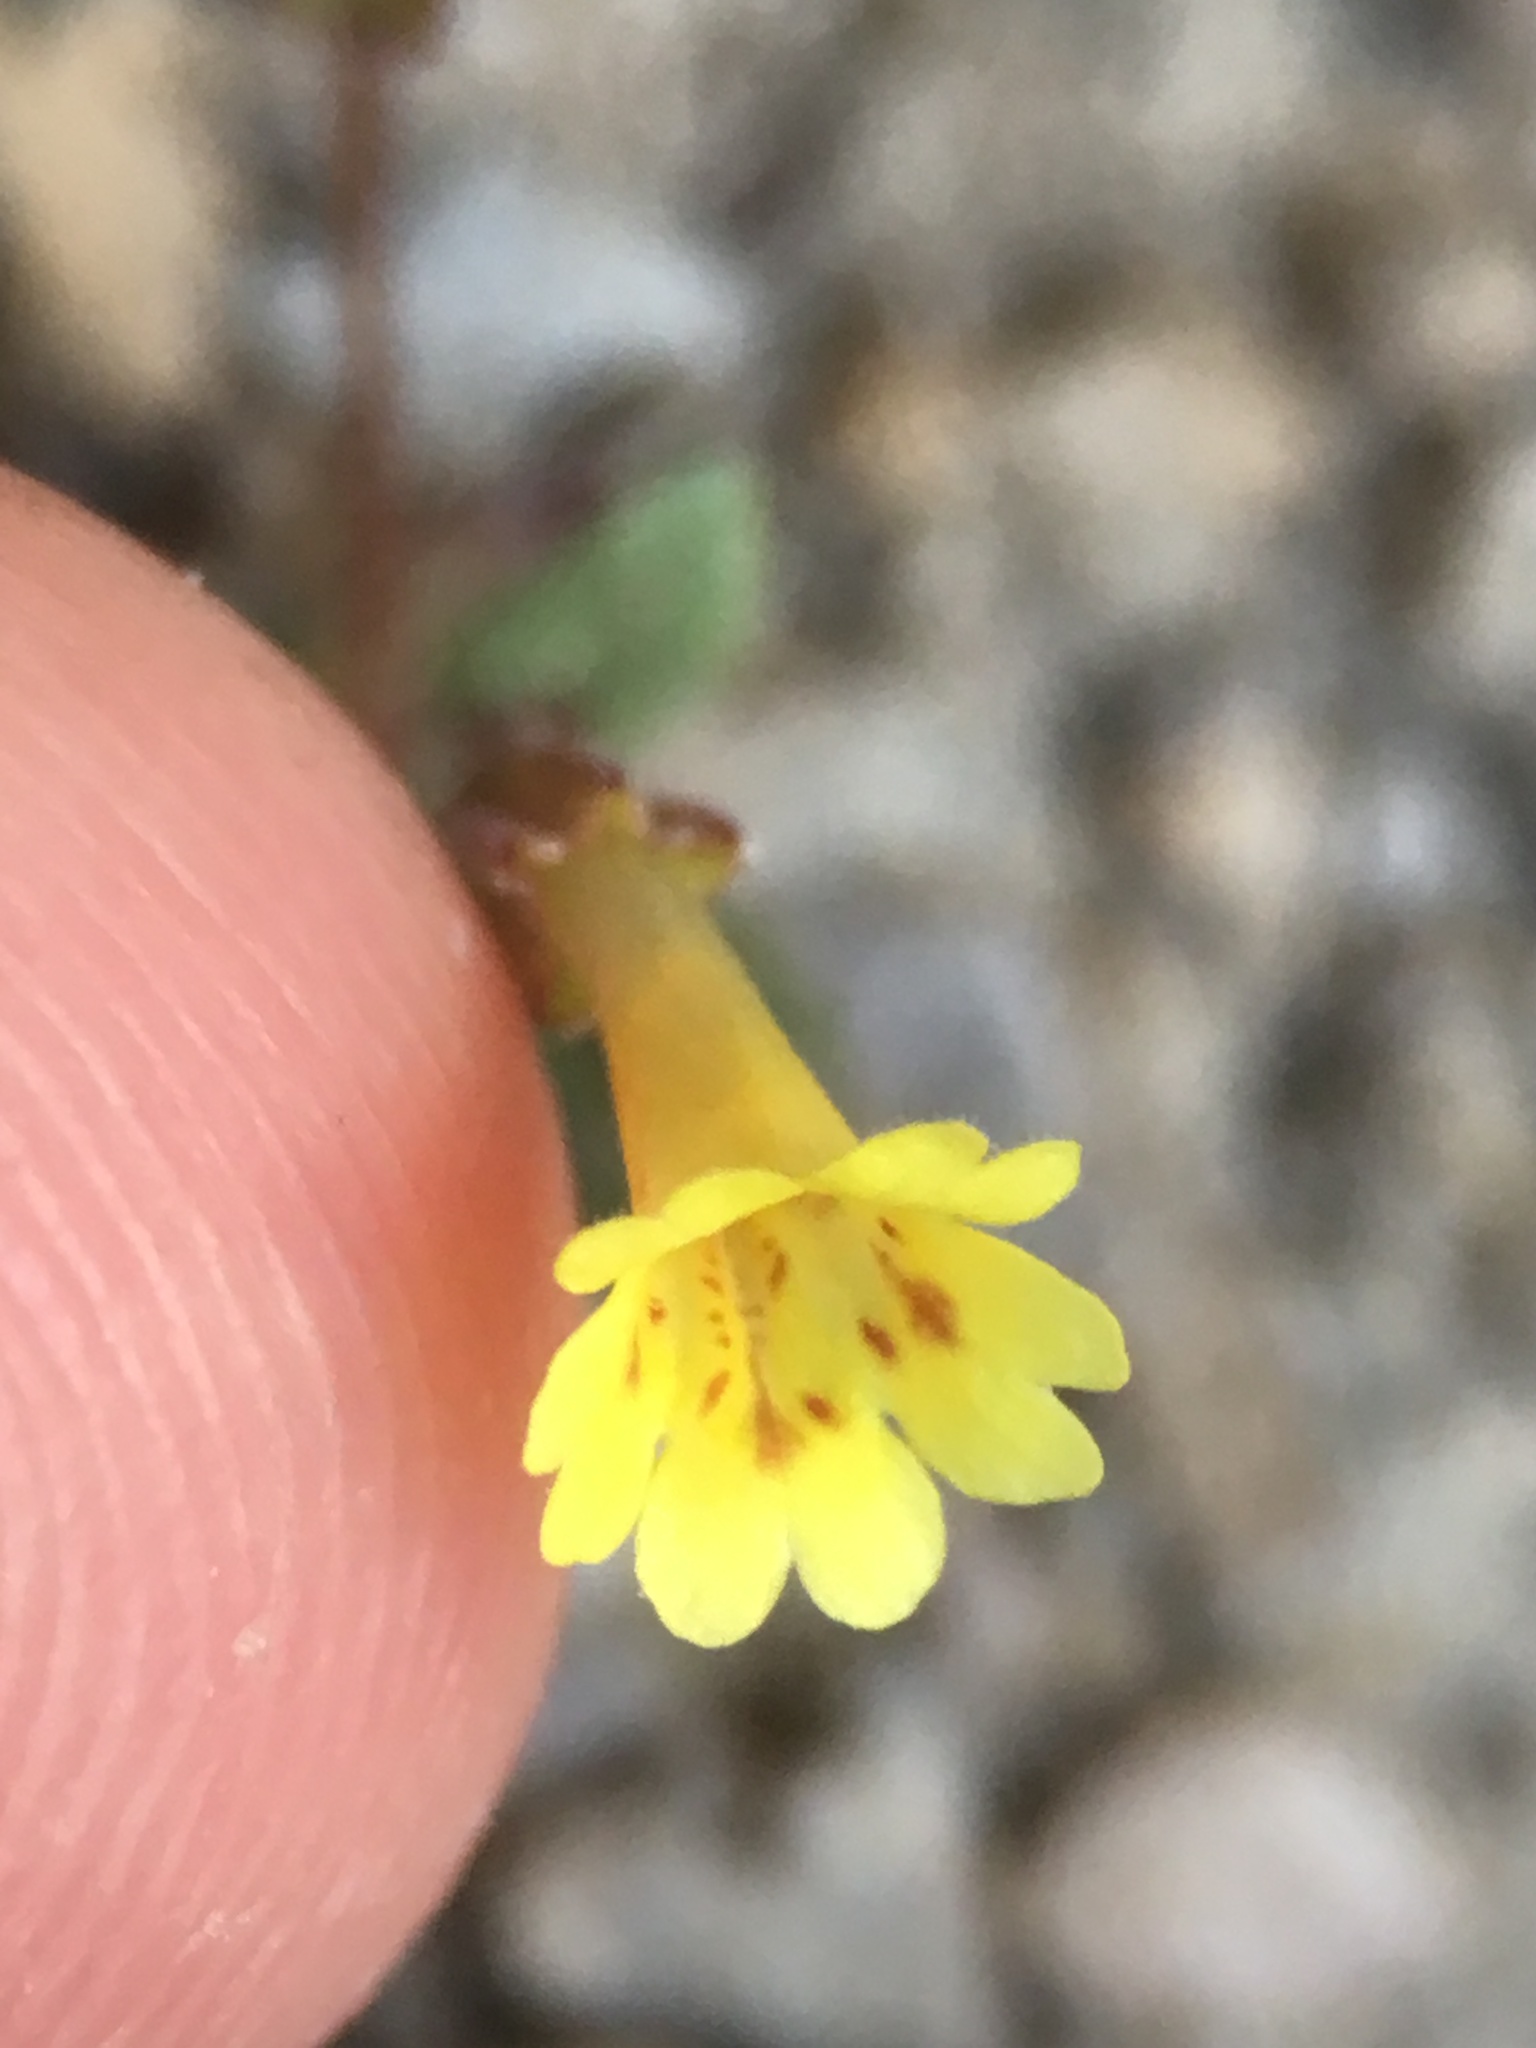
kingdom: Plantae
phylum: Tracheophyta
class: Magnoliopsida
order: Lamiales
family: Phrymaceae
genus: Erythranthe
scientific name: Erythranthe calcicola
